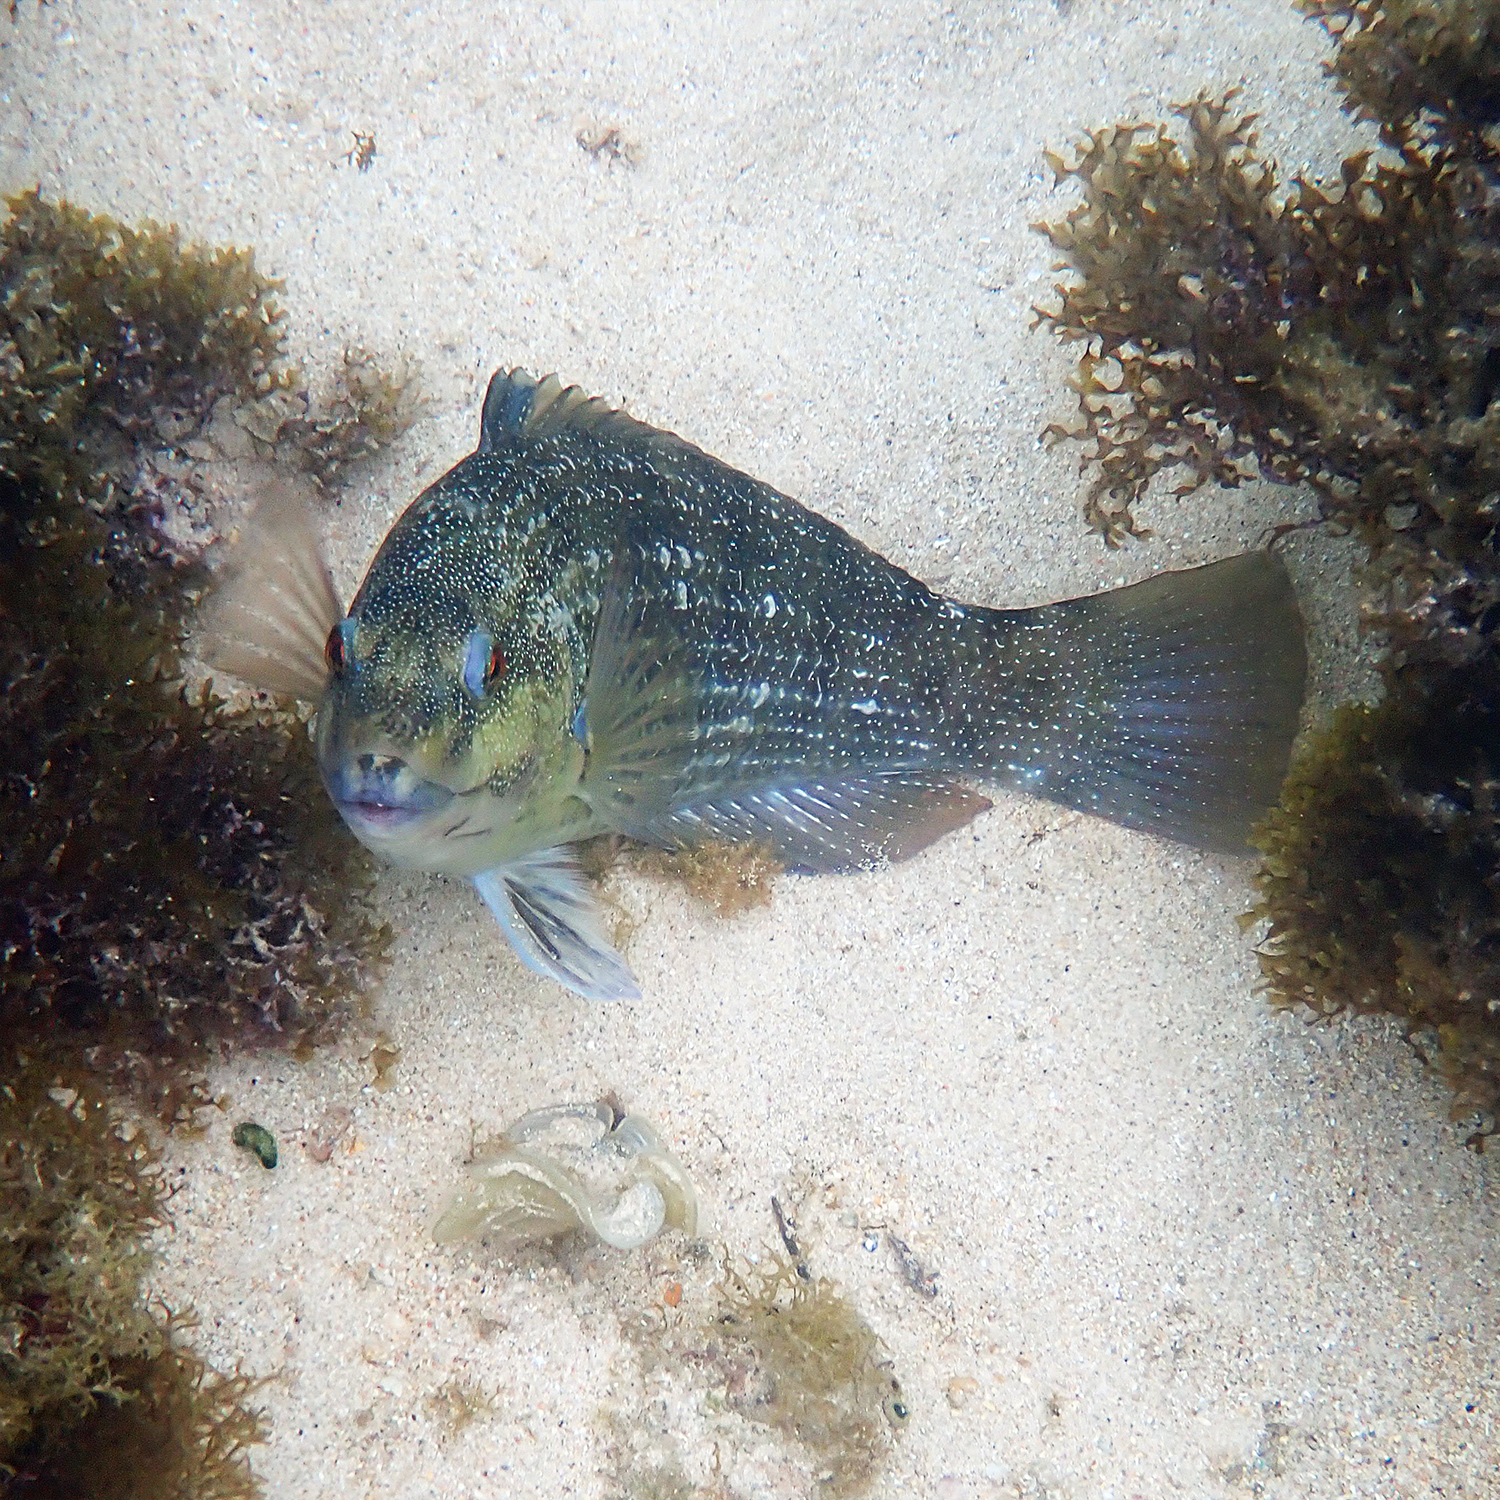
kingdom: Animalia
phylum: Chordata
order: Perciformes
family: Labridae
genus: Notolabrus
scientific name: Notolabrus inscriptus
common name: Green wrasse
